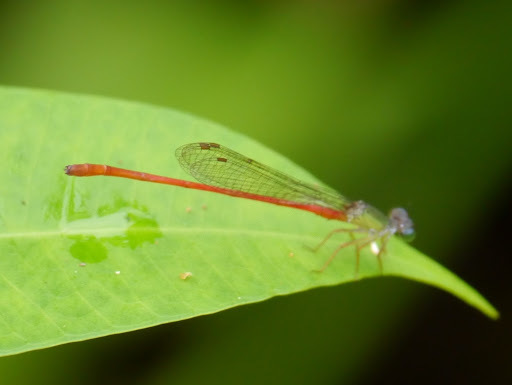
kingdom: Animalia
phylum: Arthropoda
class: Insecta
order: Odonata
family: Coenagrionidae
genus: Ceriagrion
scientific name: Ceriagrion corallinum
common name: Green-fronted waxtail
